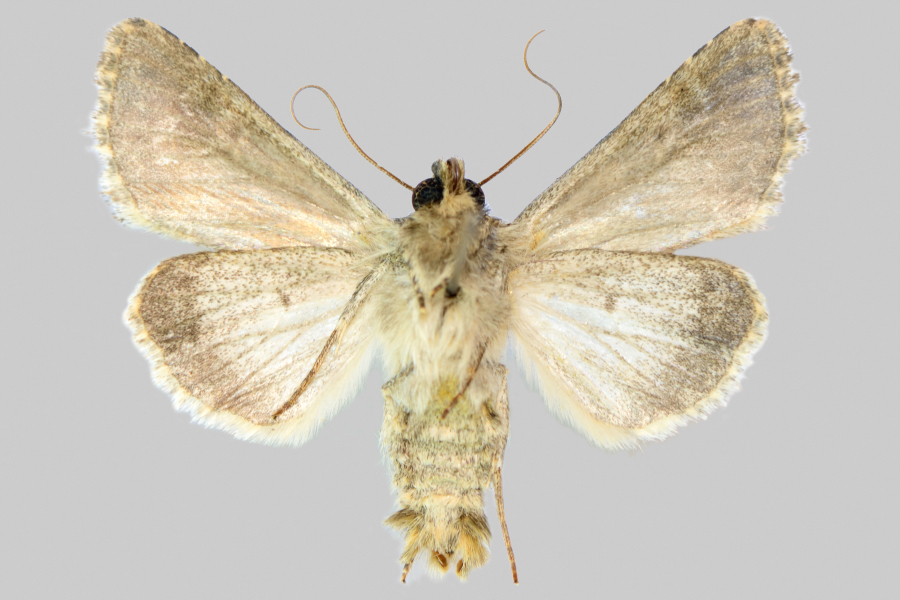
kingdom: Animalia
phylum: Arthropoda
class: Insecta
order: Lepidoptera
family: Noctuidae
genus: Hecatera
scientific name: Hecatera dysodea
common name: Small ranunculus
